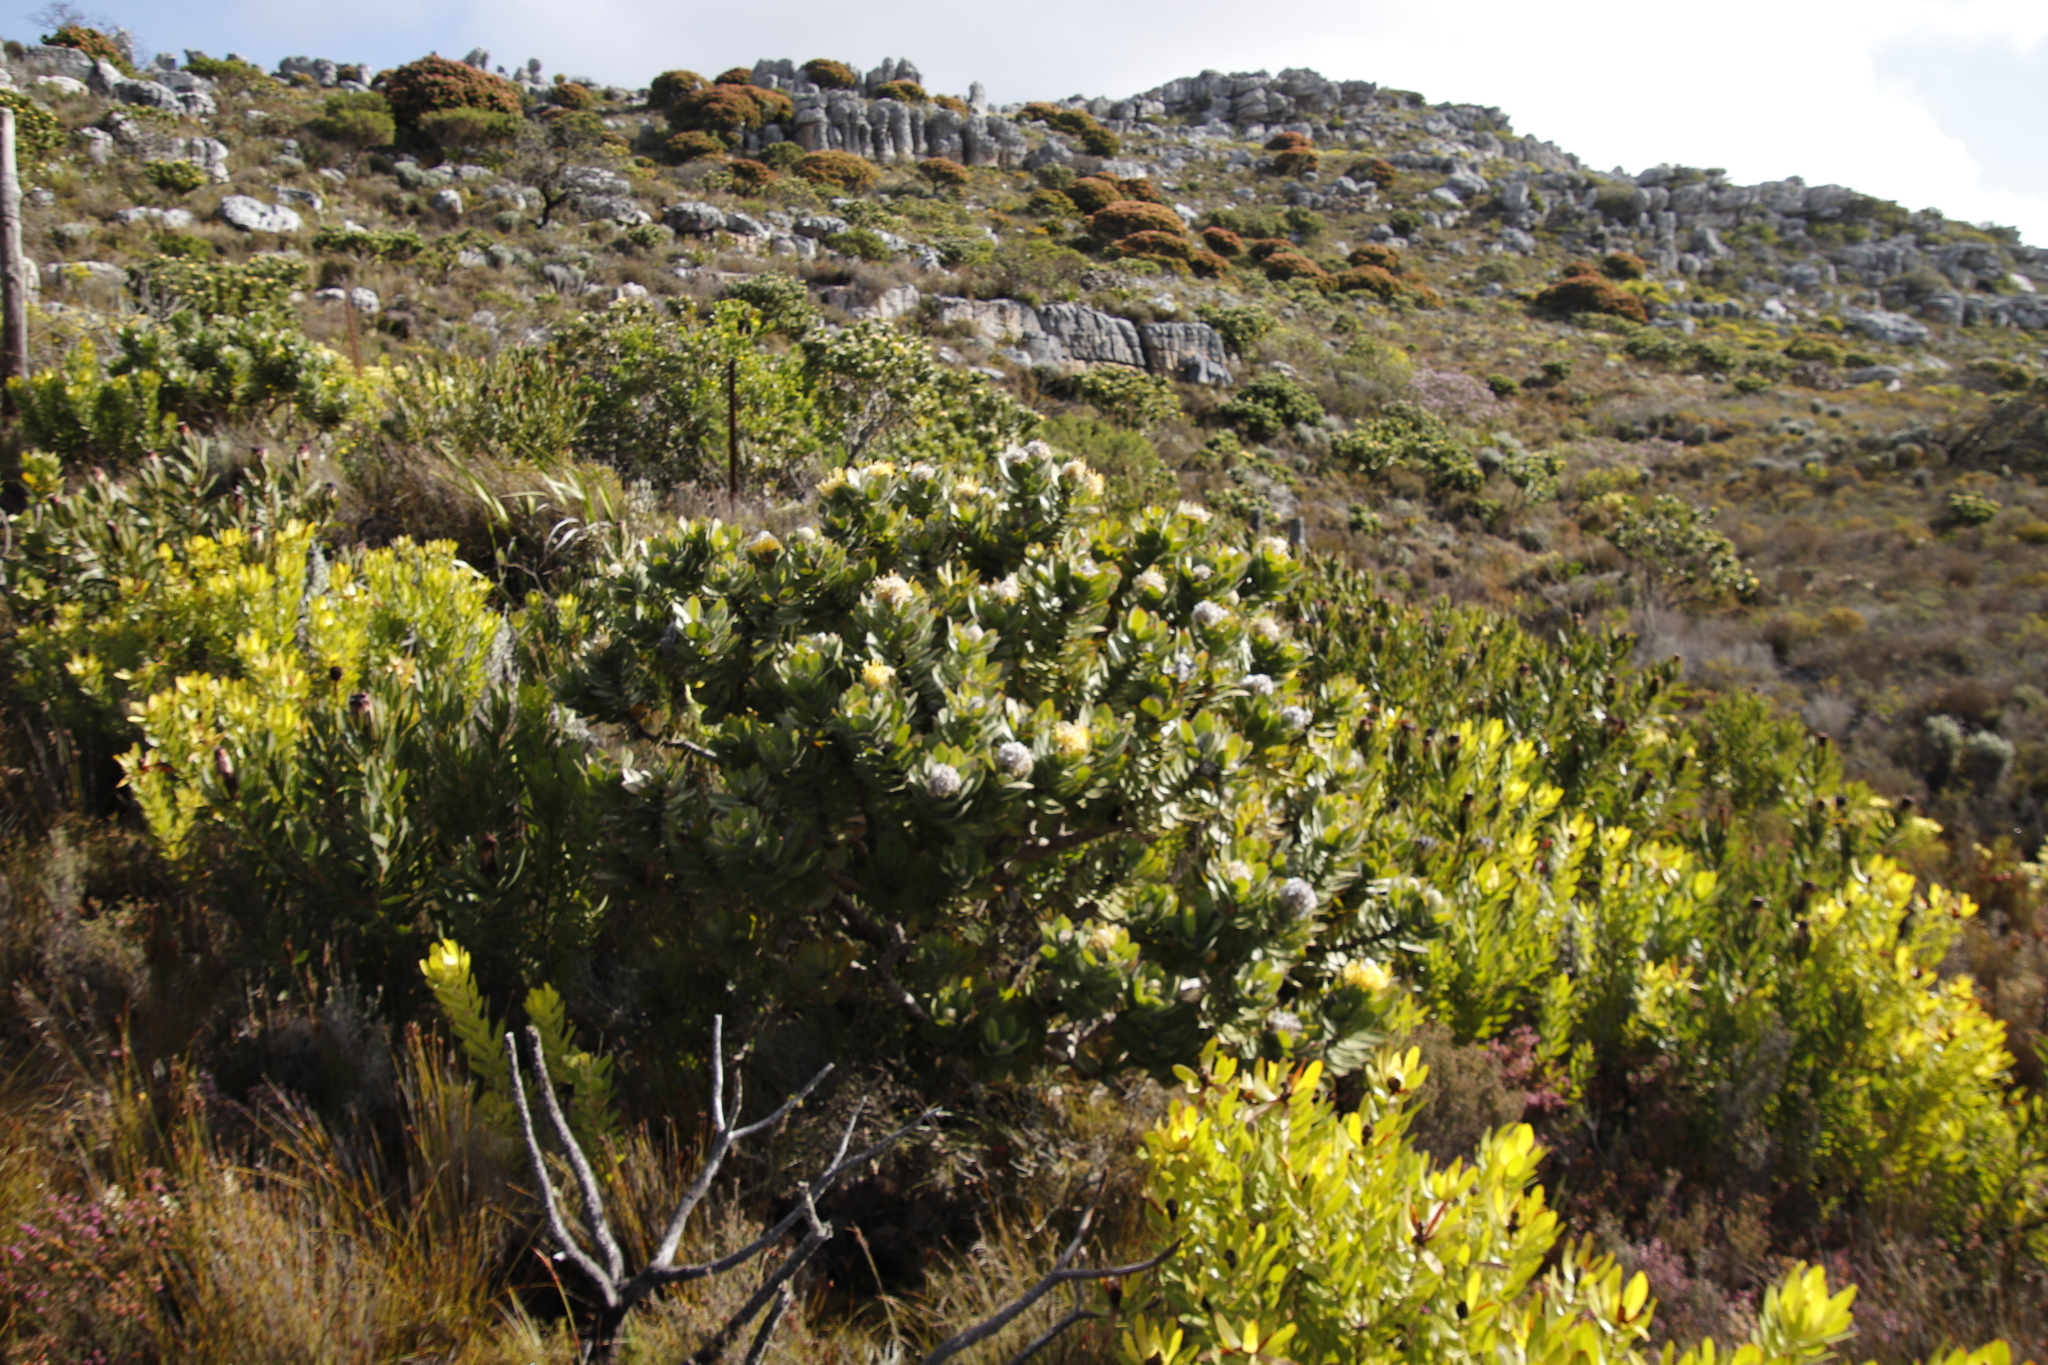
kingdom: Plantae
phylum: Tracheophyta
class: Magnoliopsida
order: Proteales
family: Proteaceae
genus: Leucospermum
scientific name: Leucospermum conocarpodendron
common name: Tree pincushion
